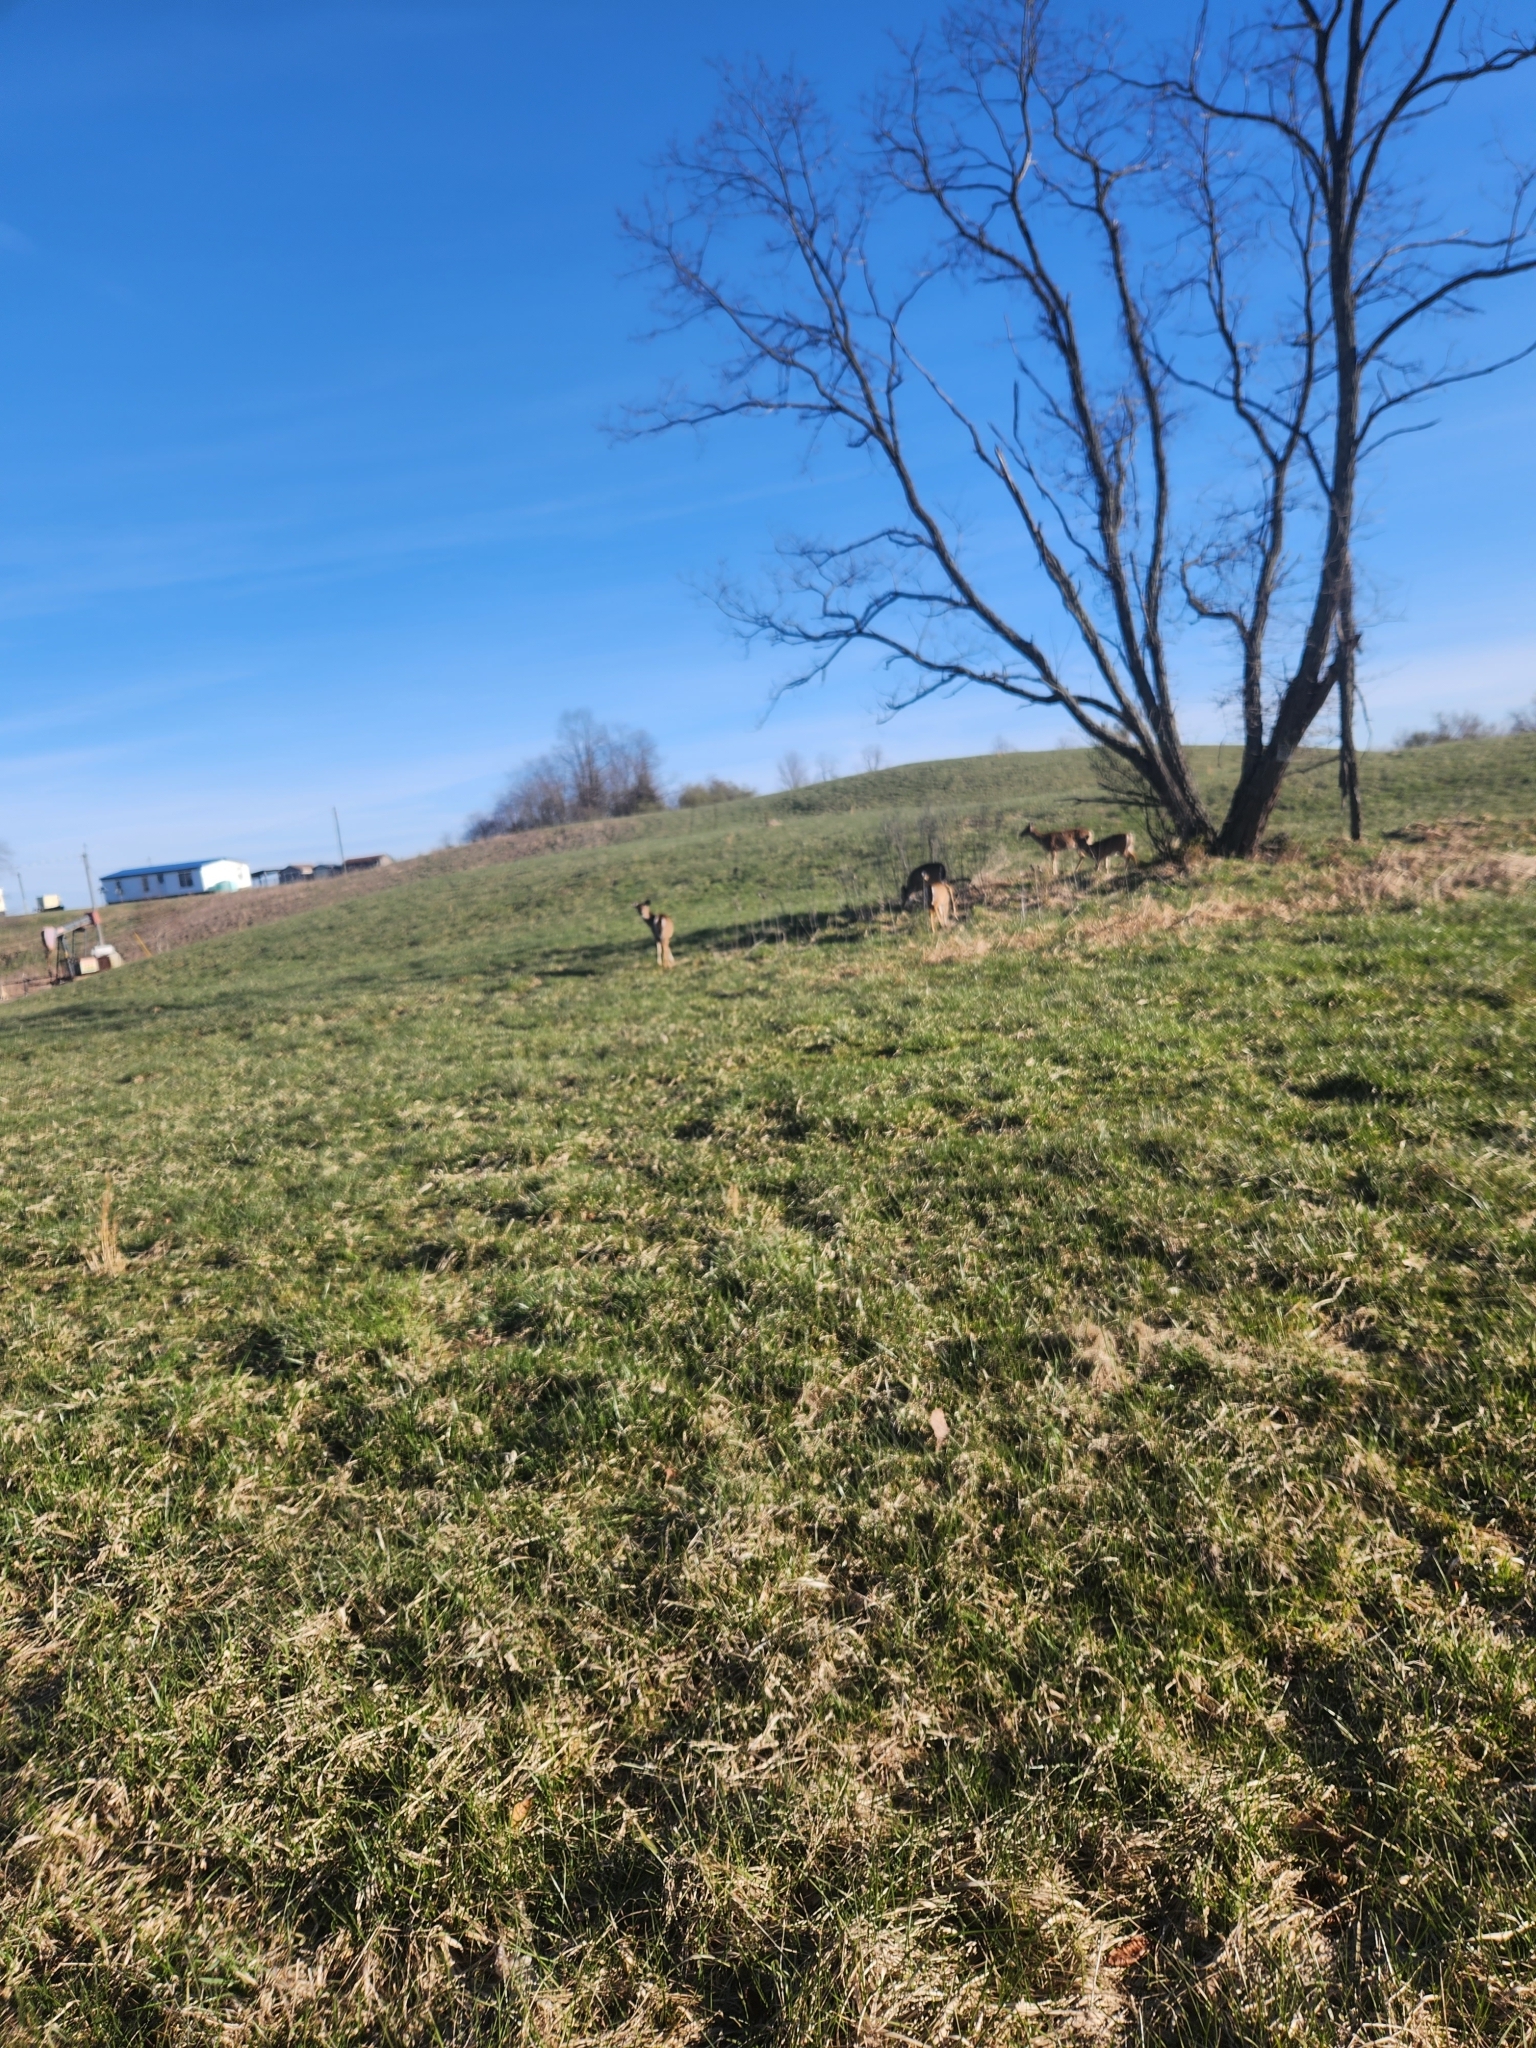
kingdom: Animalia
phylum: Chordata
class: Mammalia
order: Artiodactyla
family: Cervidae
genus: Odocoileus
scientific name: Odocoileus virginianus
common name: White-tailed deer
